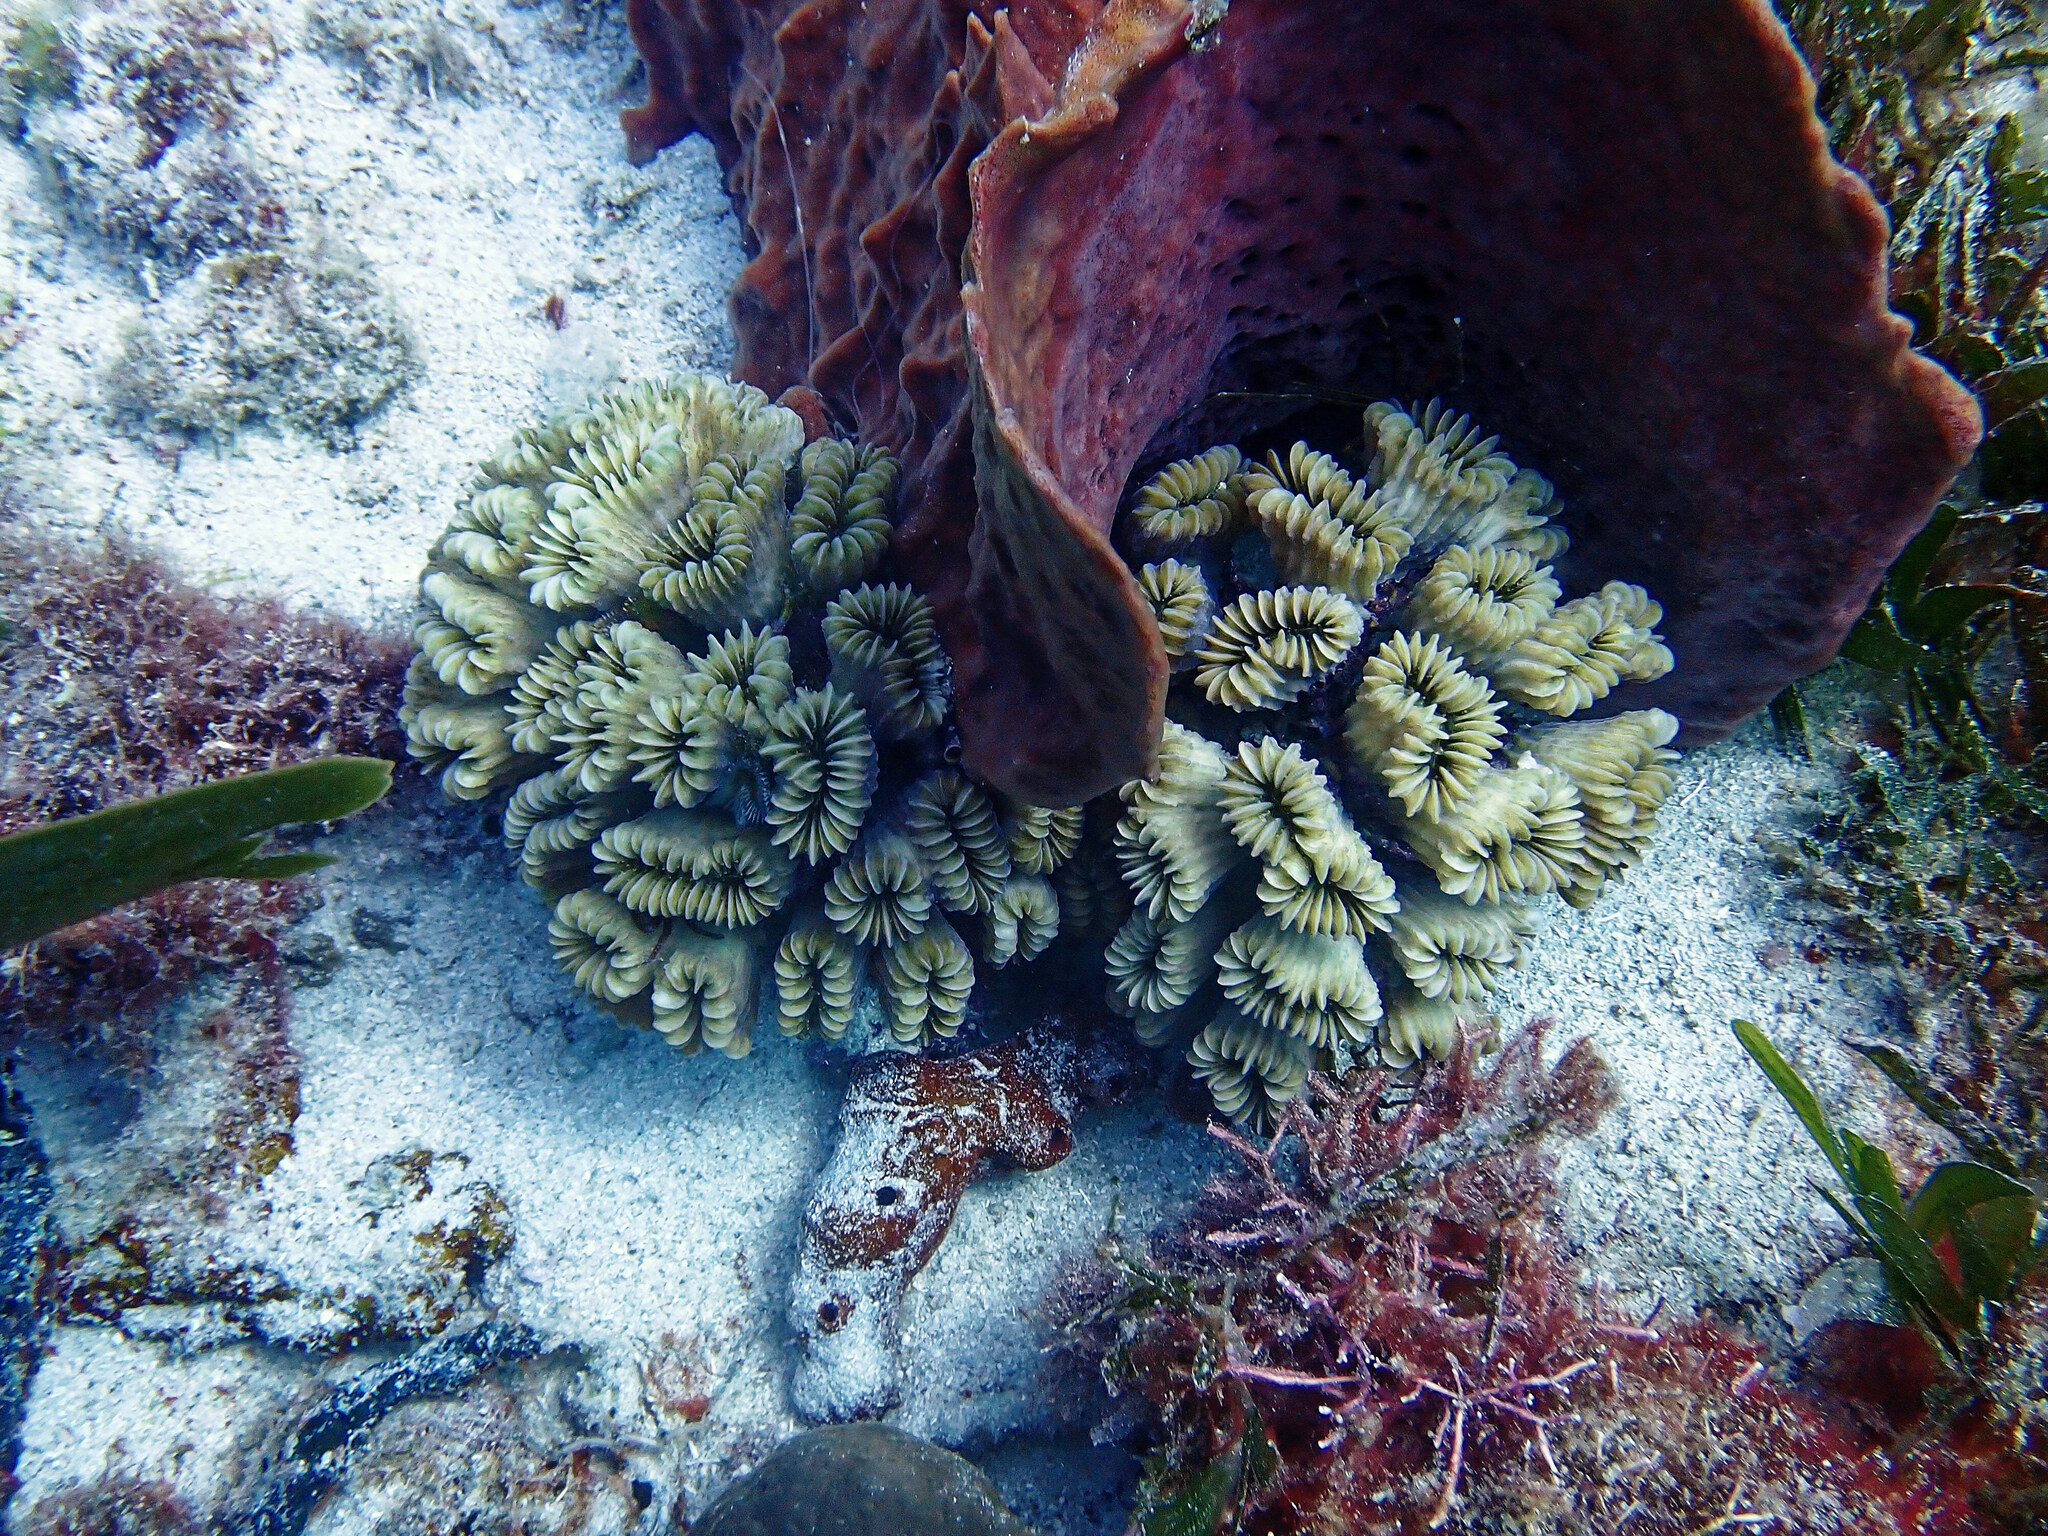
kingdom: Animalia
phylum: Cnidaria
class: Anthozoa
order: Scleractinia
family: Meandrinidae
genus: Eusmilia
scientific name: Eusmilia fastigiata
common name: Smooth flower coral
